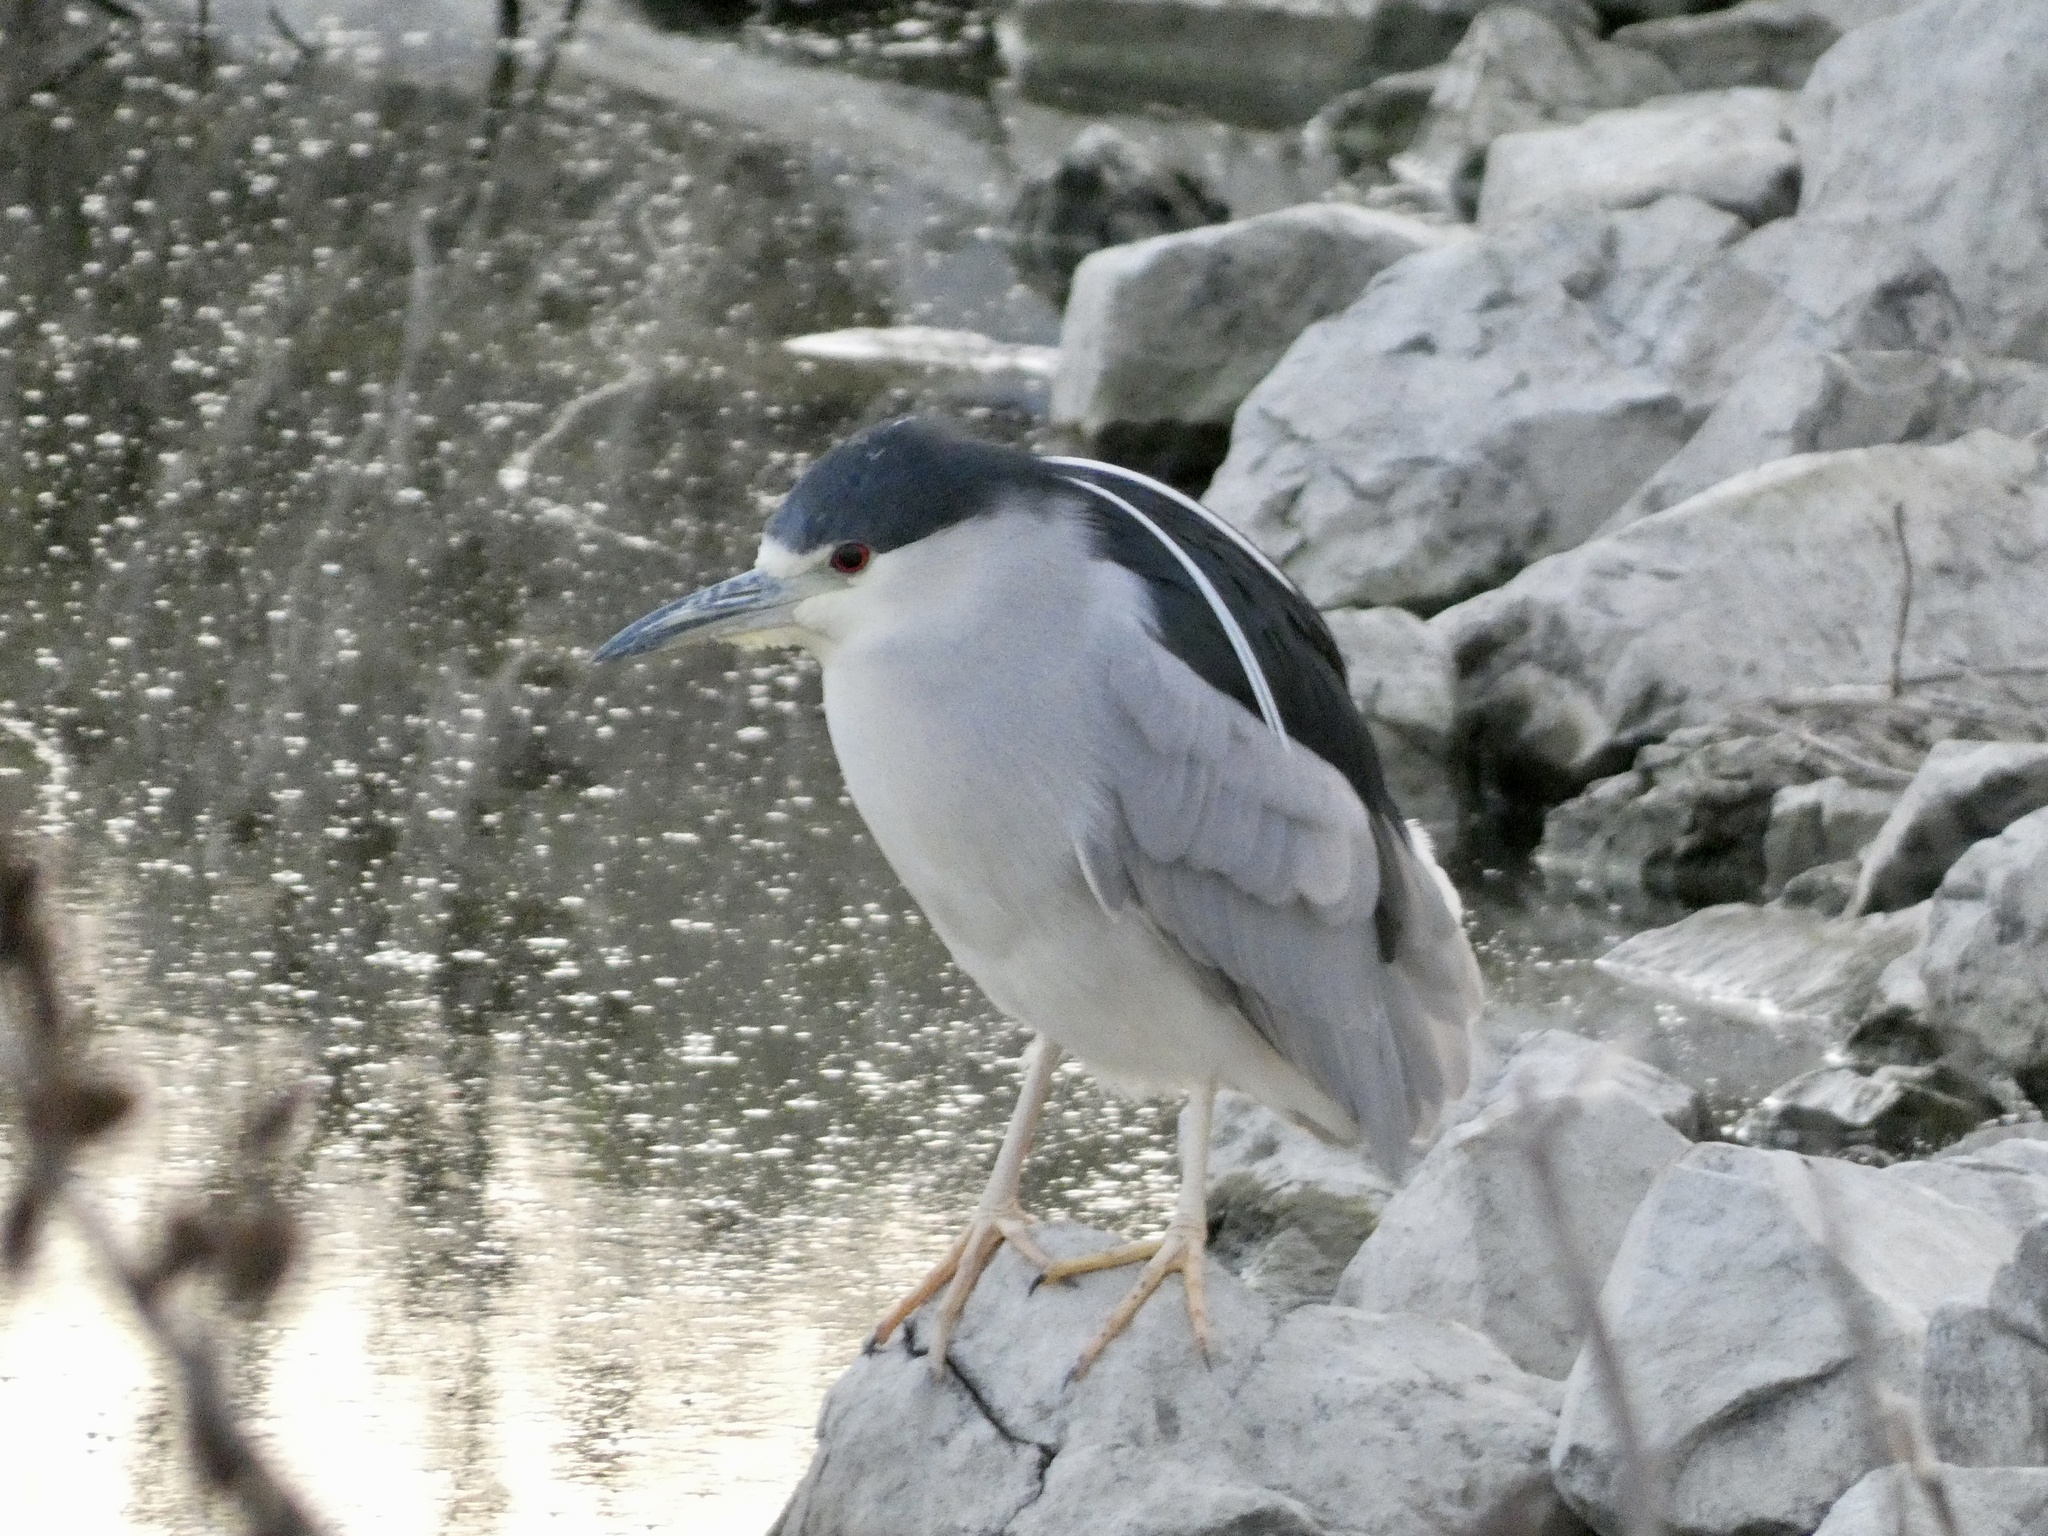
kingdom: Animalia
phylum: Chordata
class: Aves
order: Pelecaniformes
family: Ardeidae
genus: Nycticorax
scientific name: Nycticorax nycticorax
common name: Black-crowned night heron
